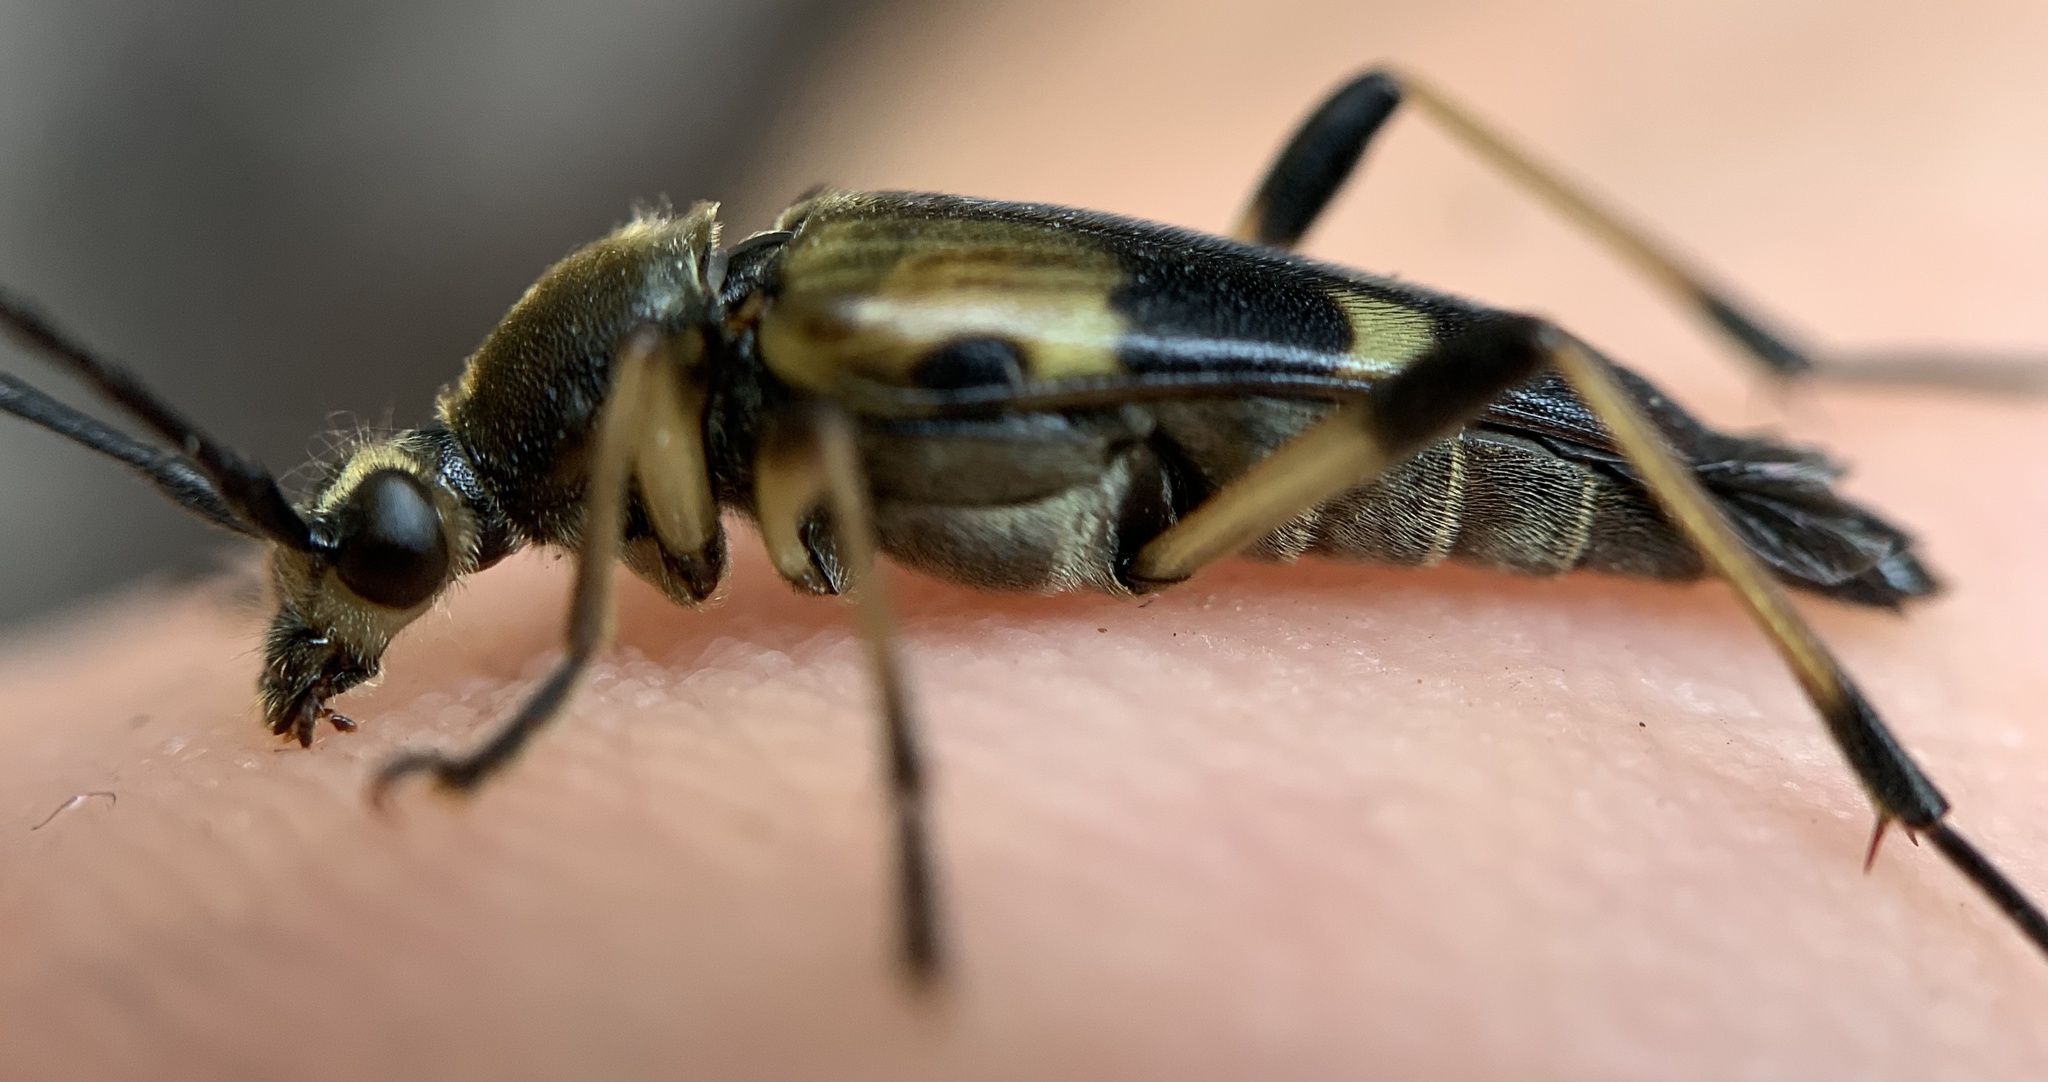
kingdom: Animalia
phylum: Arthropoda
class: Insecta
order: Coleoptera
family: Cerambycidae
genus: Etorofus
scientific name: Etorofus obliteratus
